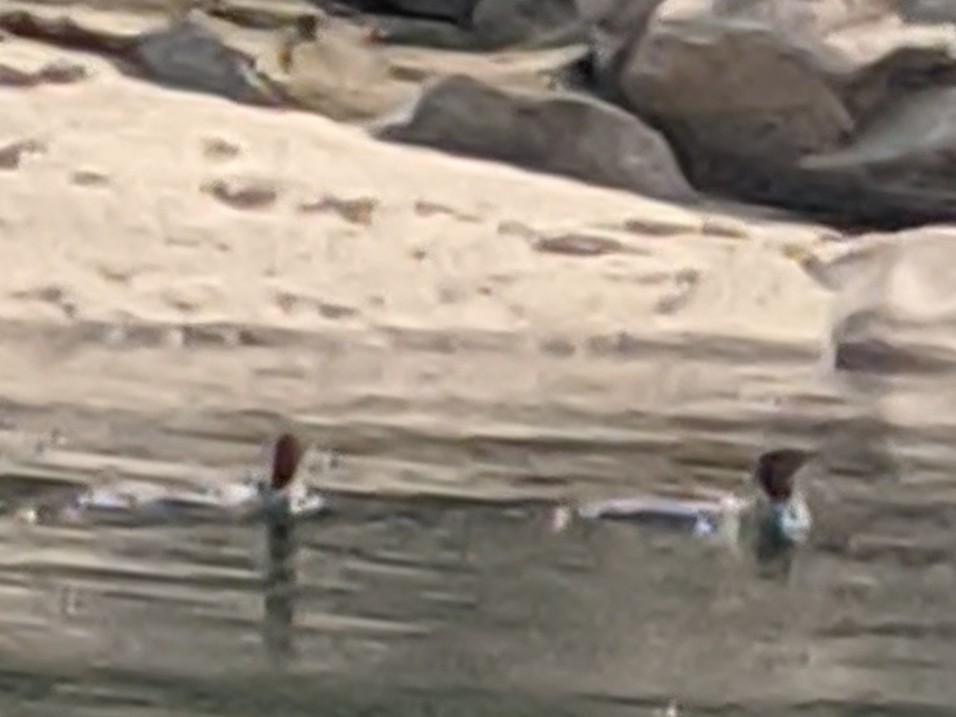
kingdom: Animalia
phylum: Chordata
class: Aves
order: Anseriformes
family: Anatidae
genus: Mergus
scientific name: Mergus merganser
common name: Common merganser
